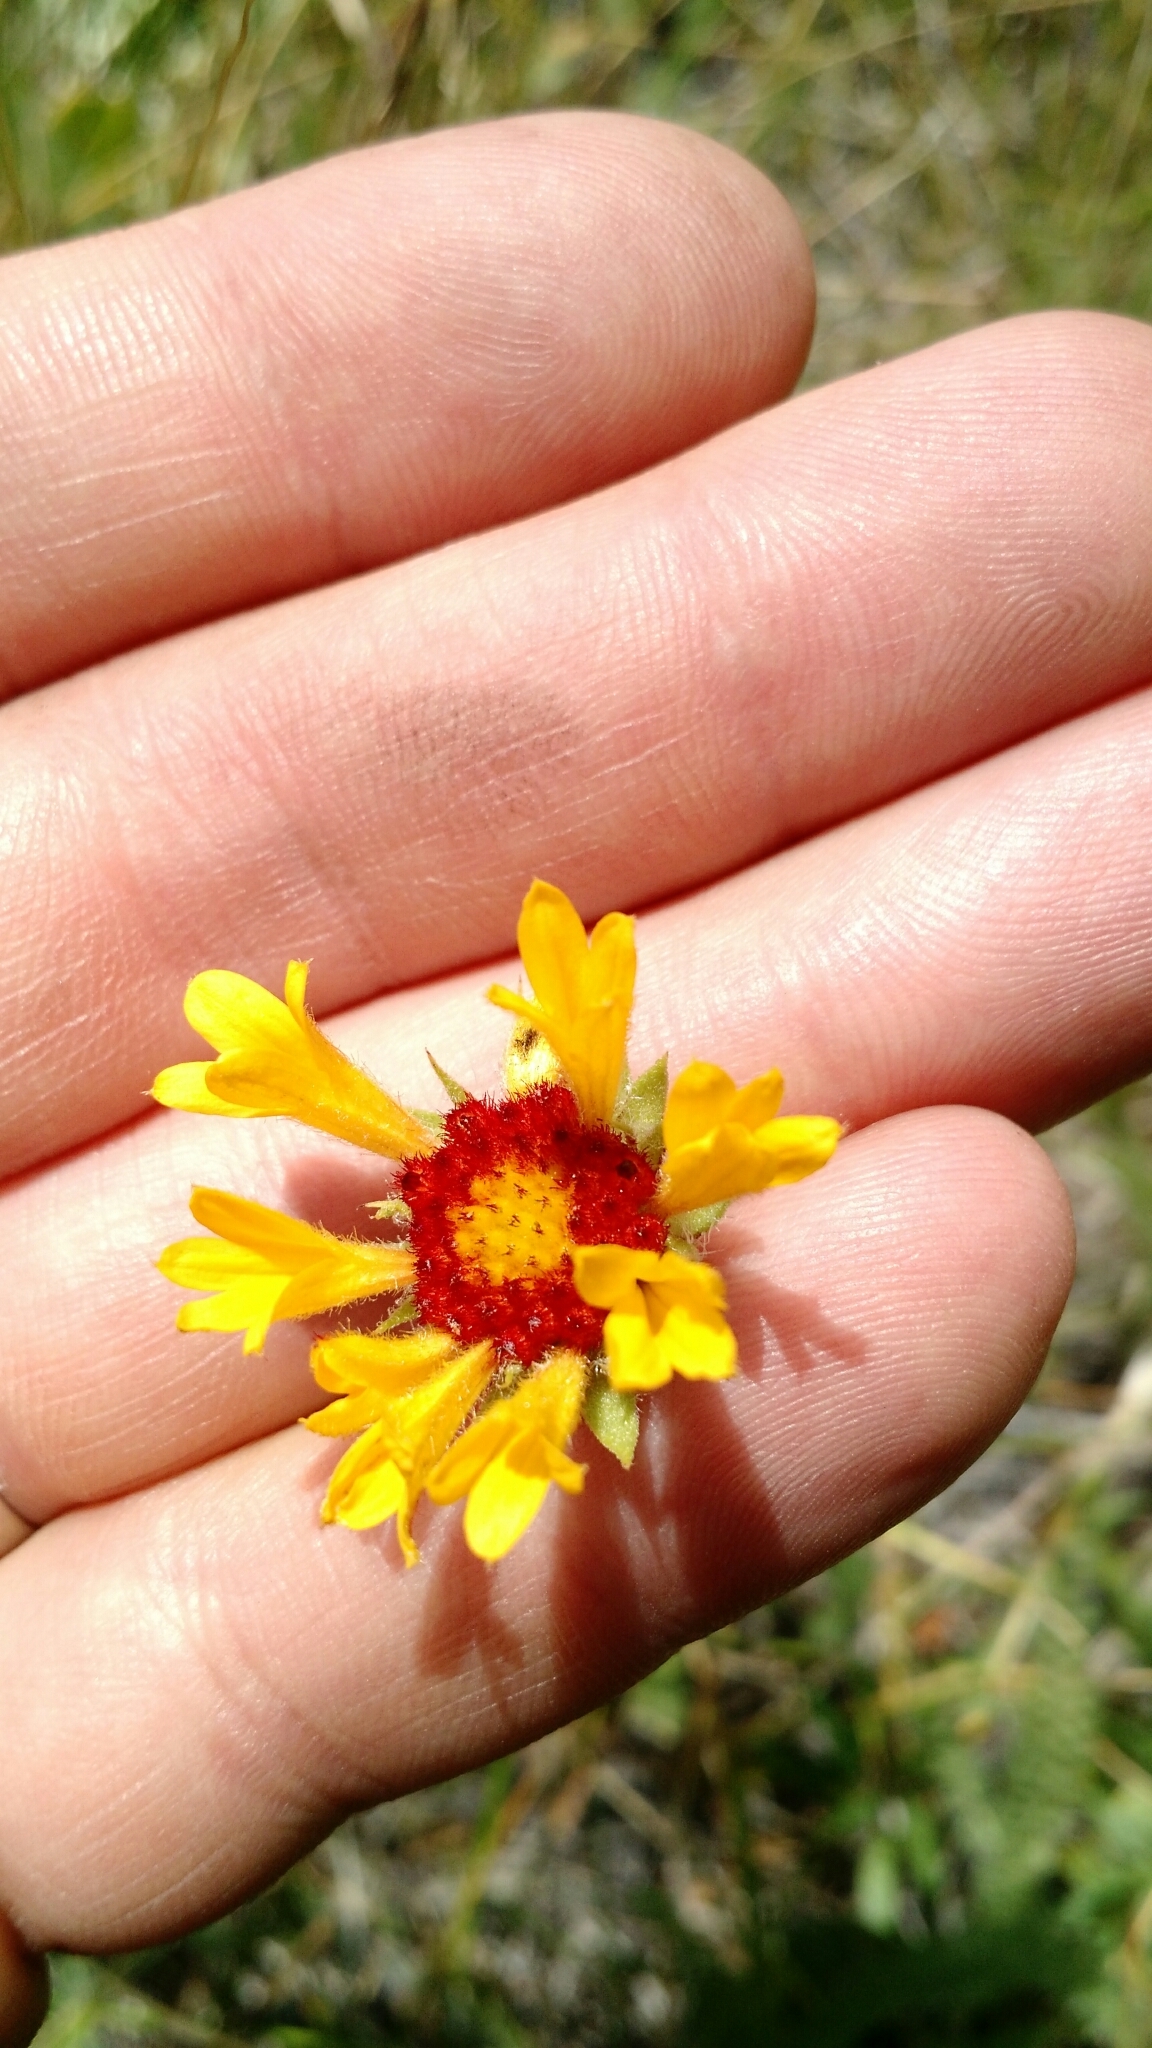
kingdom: Plantae
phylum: Tracheophyta
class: Magnoliopsida
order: Asterales
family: Asteraceae
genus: Gaillardia
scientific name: Gaillardia aristata
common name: Blanket-flower
